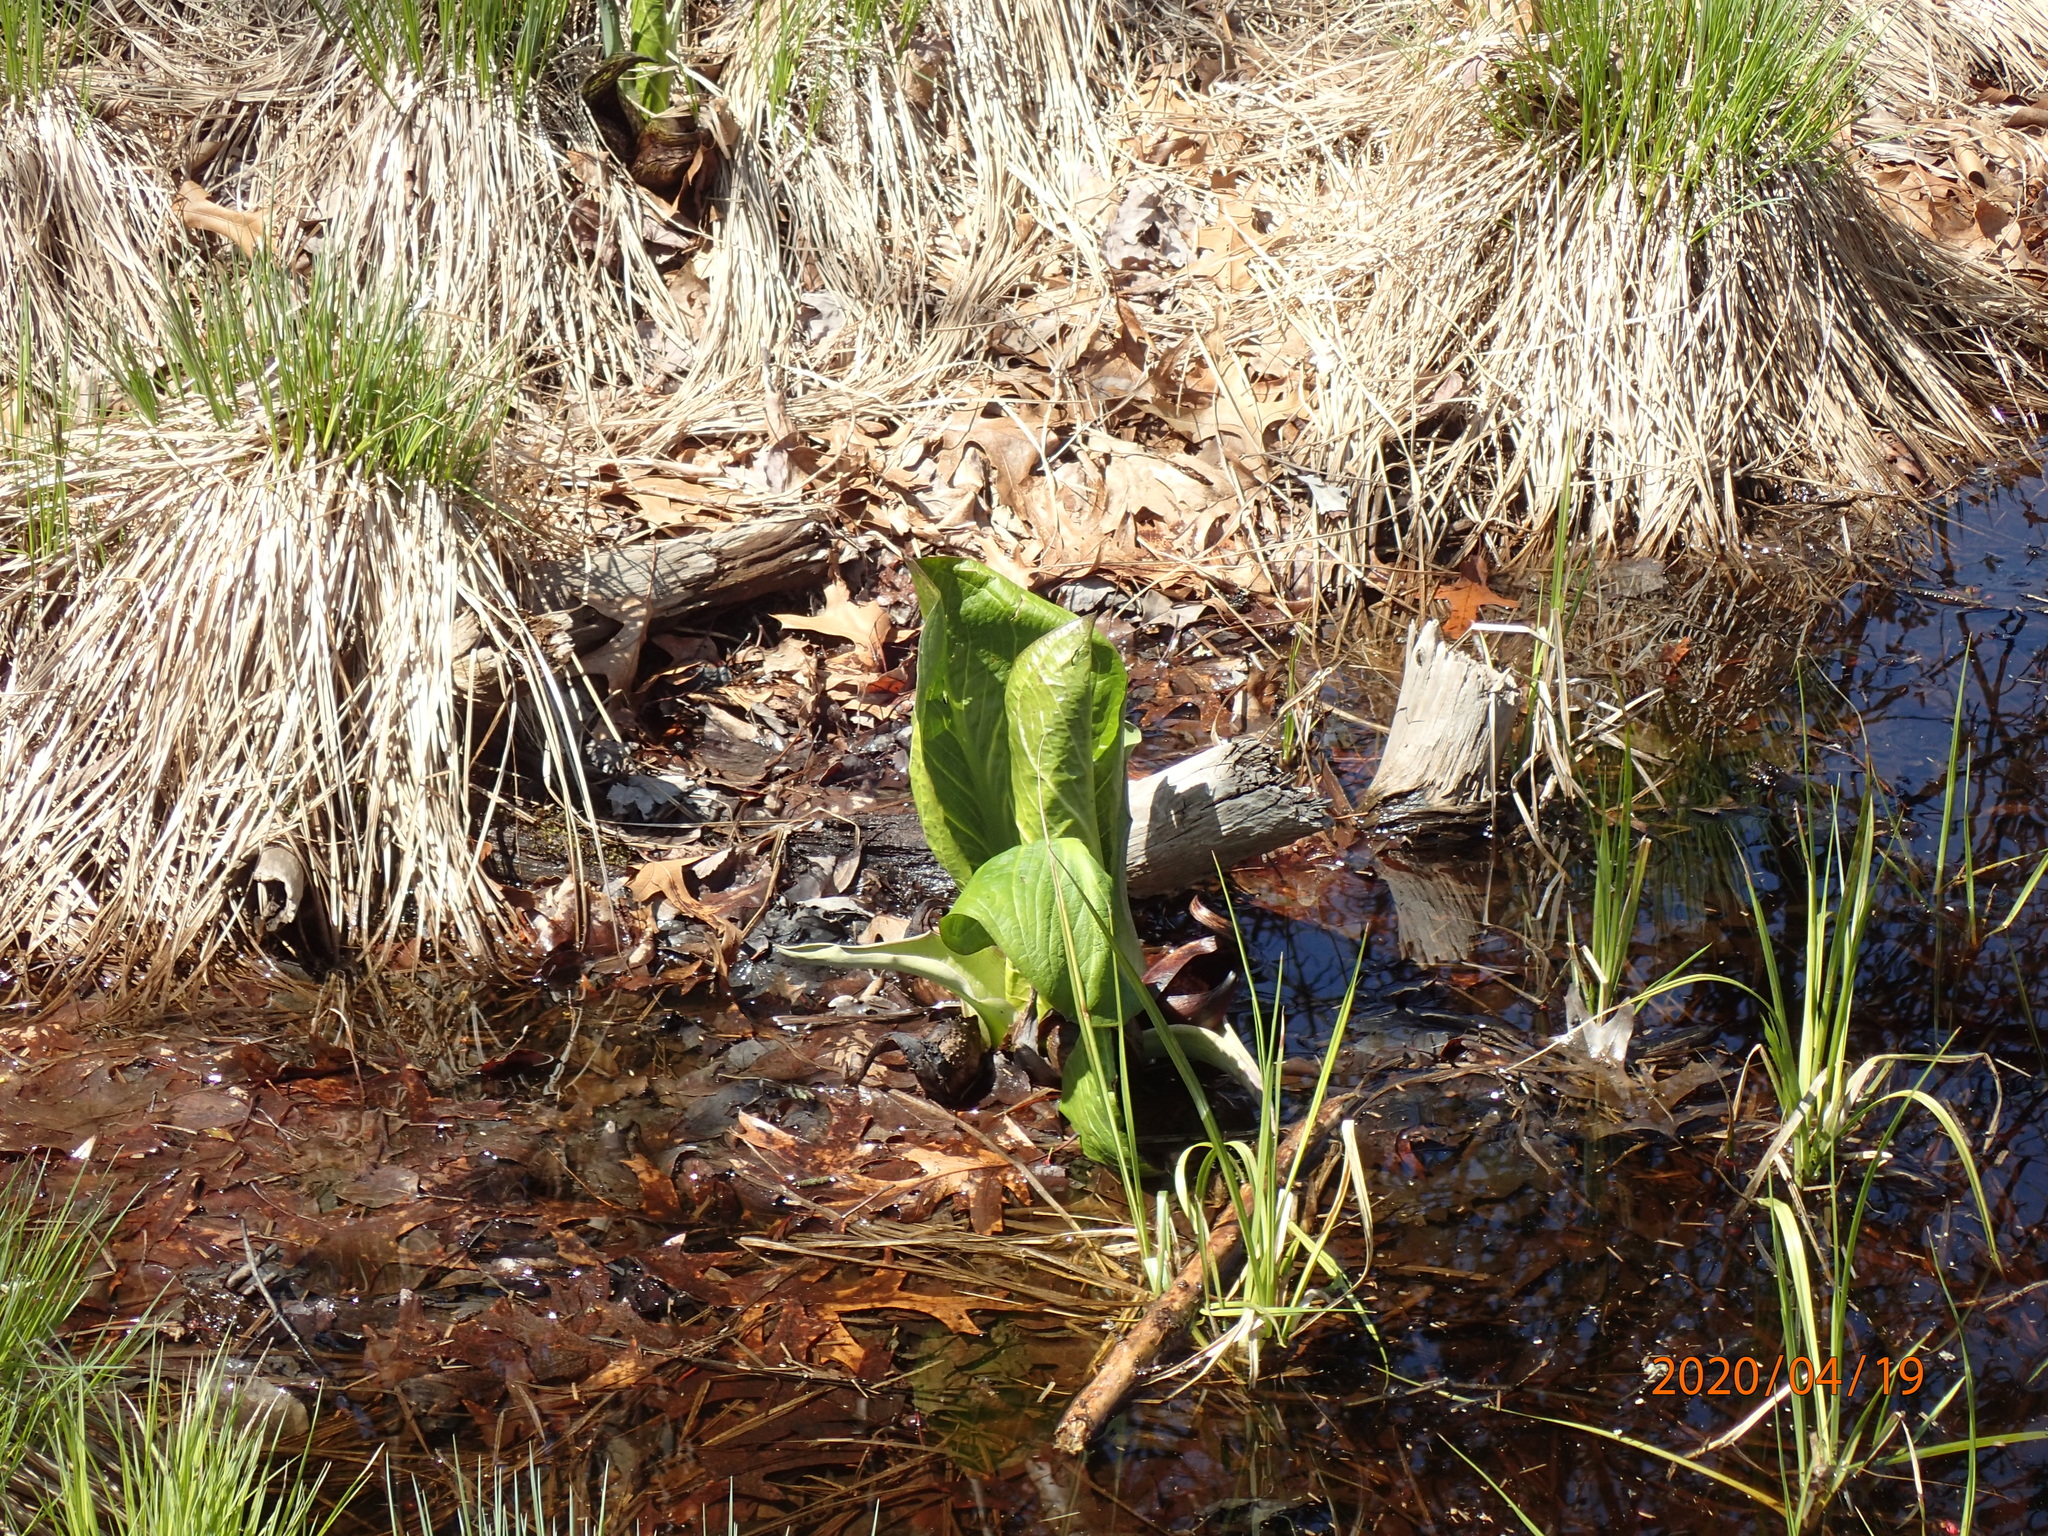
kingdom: Plantae
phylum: Tracheophyta
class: Liliopsida
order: Alismatales
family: Araceae
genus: Symplocarpus
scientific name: Symplocarpus foetidus
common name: Eastern skunk cabbage
